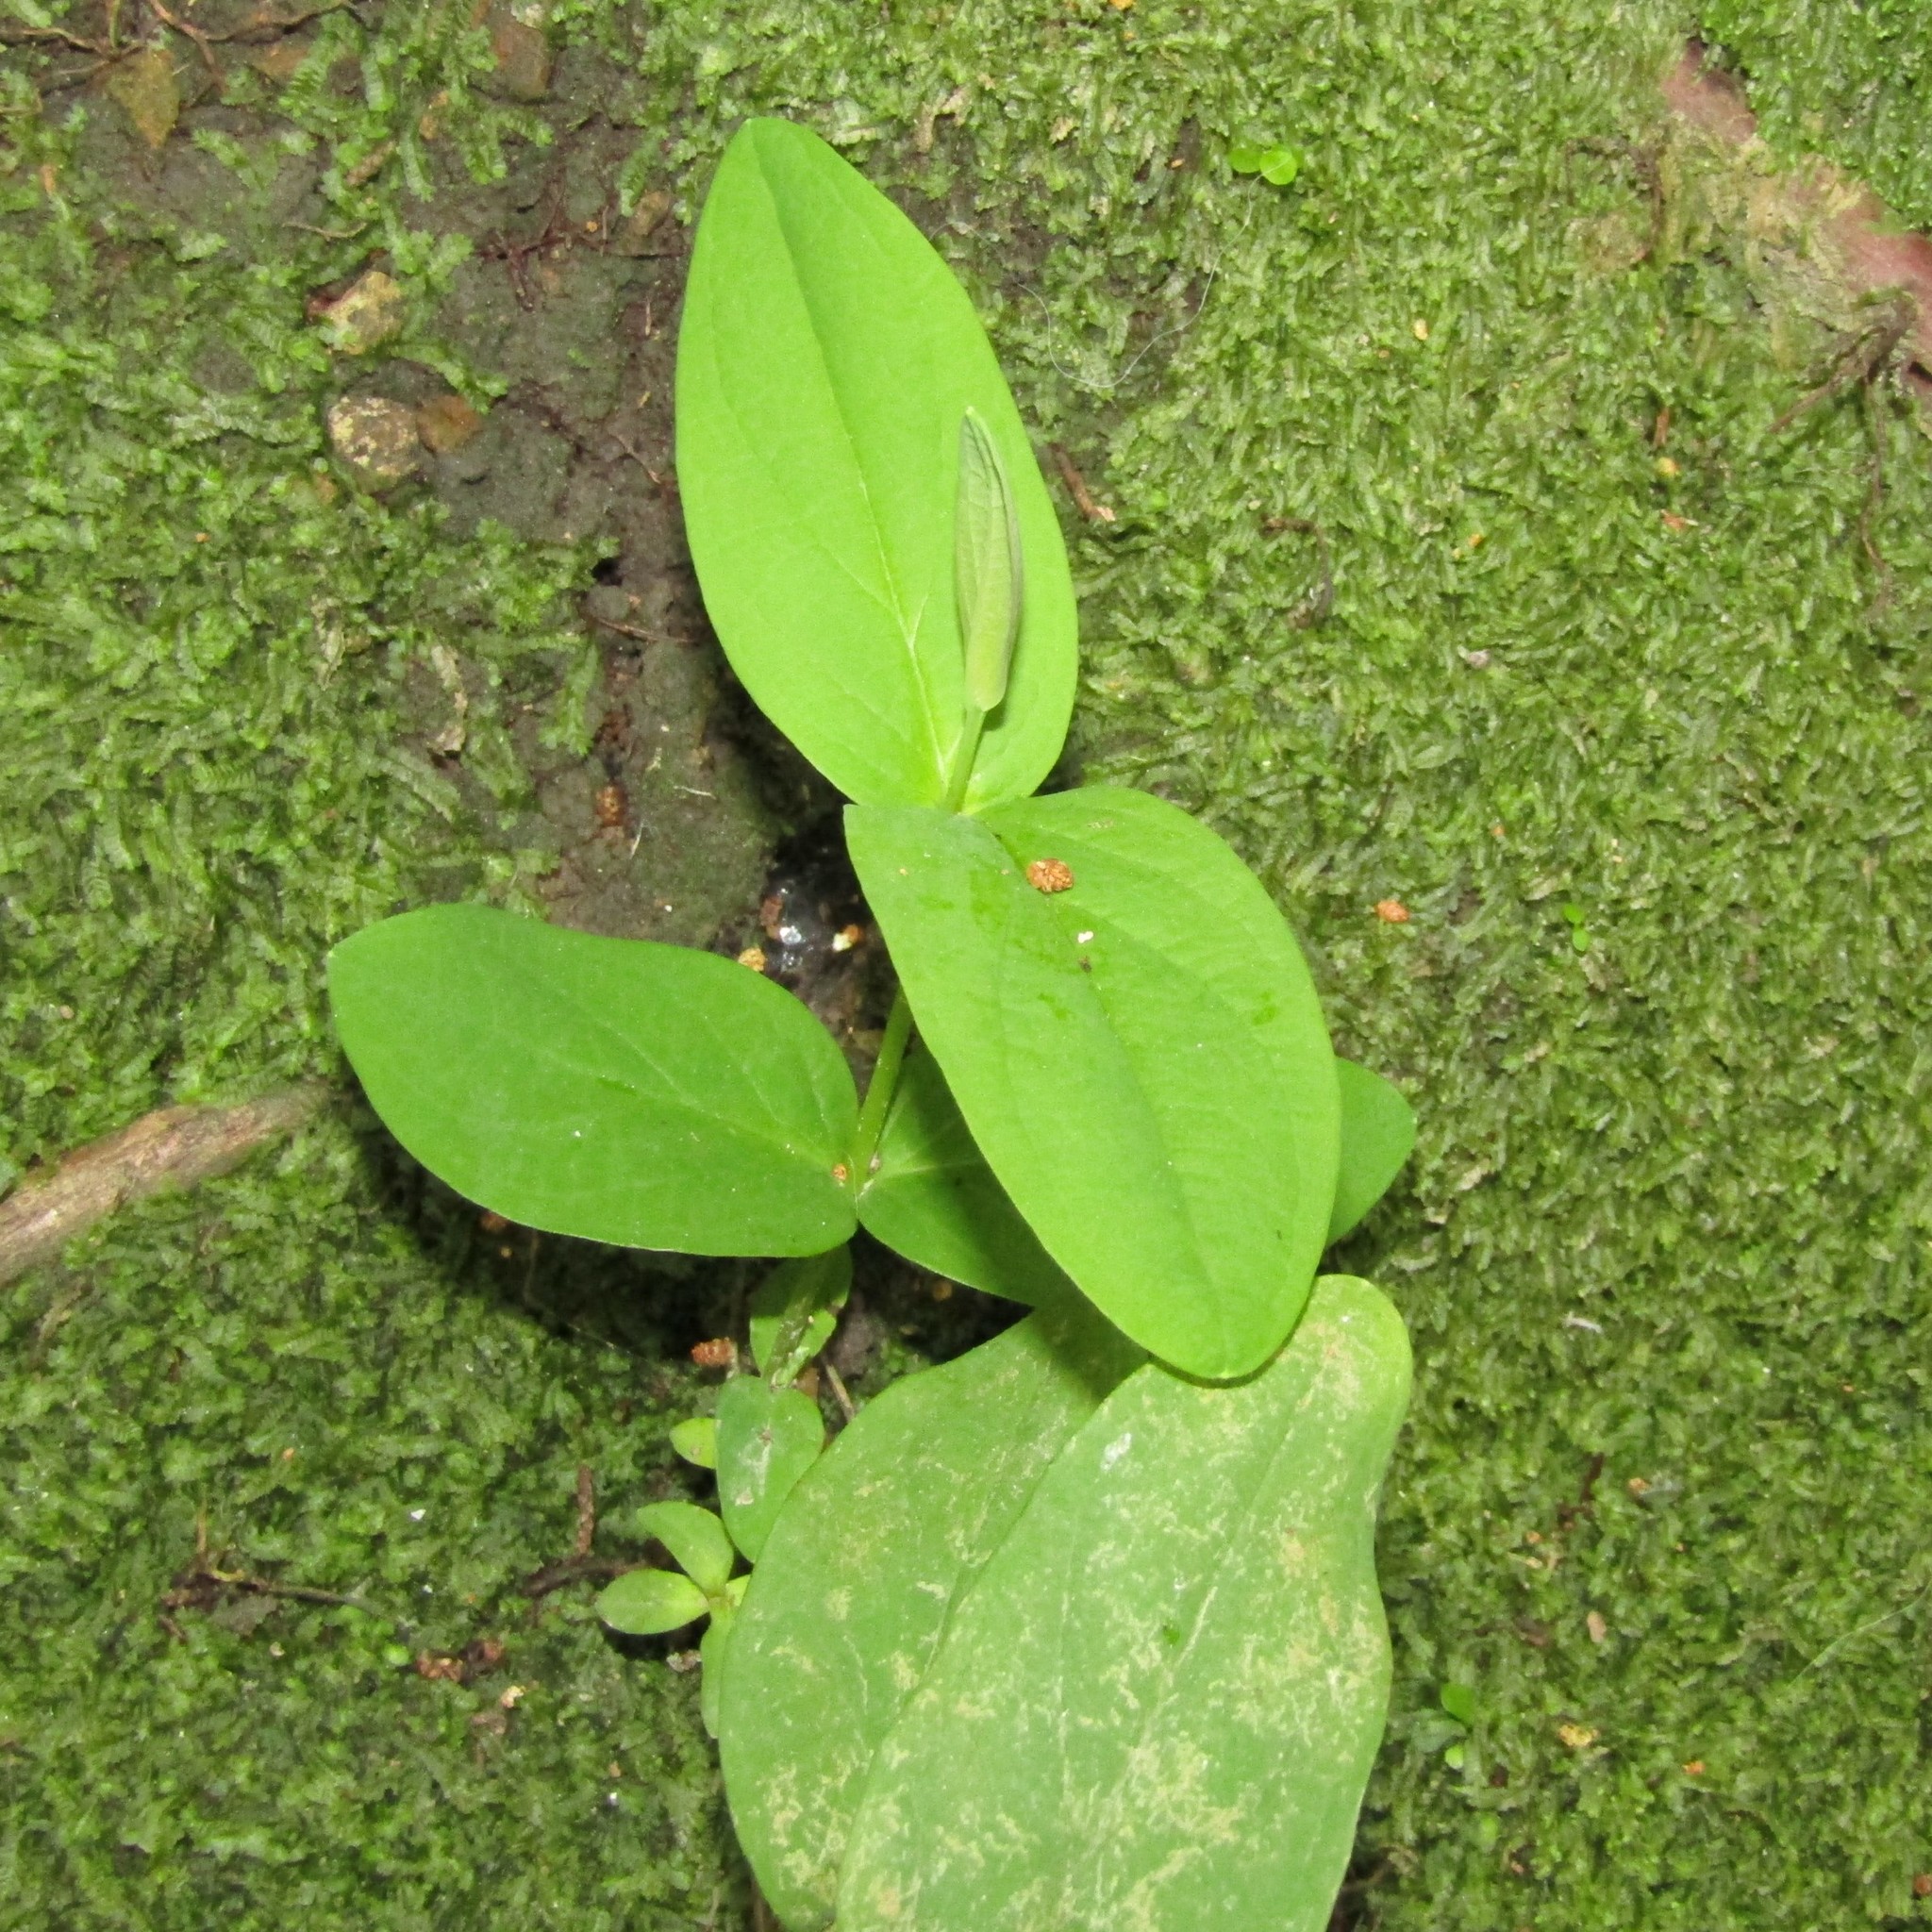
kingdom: Plantae
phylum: Tracheophyta
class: Magnoliopsida
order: Malpighiales
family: Hypericaceae
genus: Hypericum
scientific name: Hypericum androsaemum
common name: Sweet-amber
